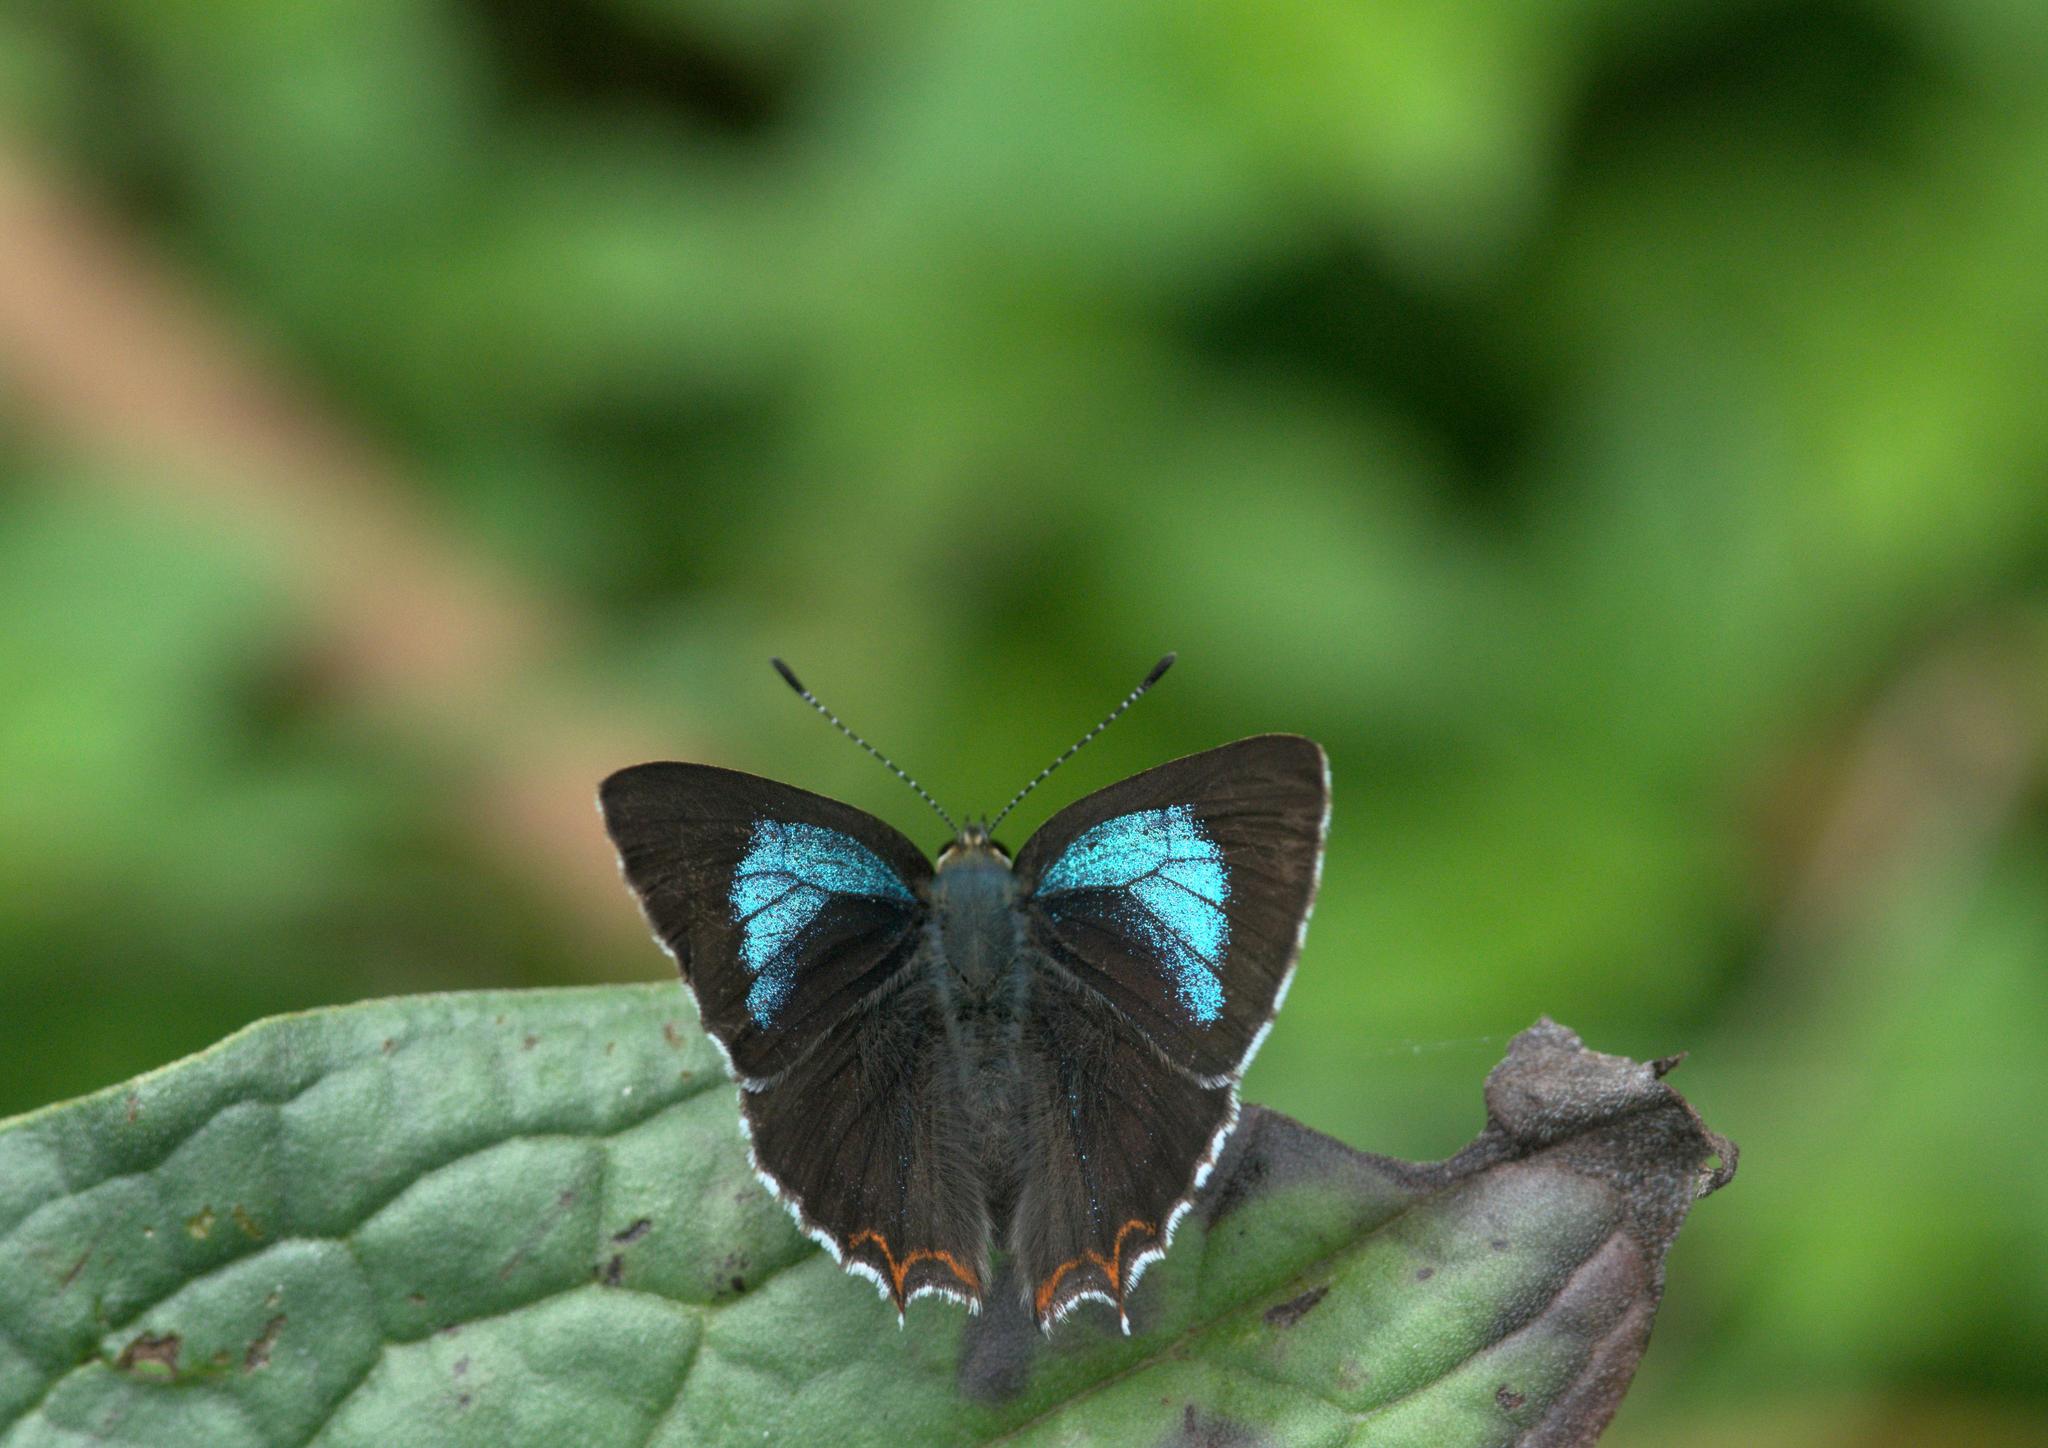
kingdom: Animalia
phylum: Arthropoda
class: Insecta
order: Lepidoptera
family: Lycaenidae
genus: Heliophorus
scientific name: Heliophorus
